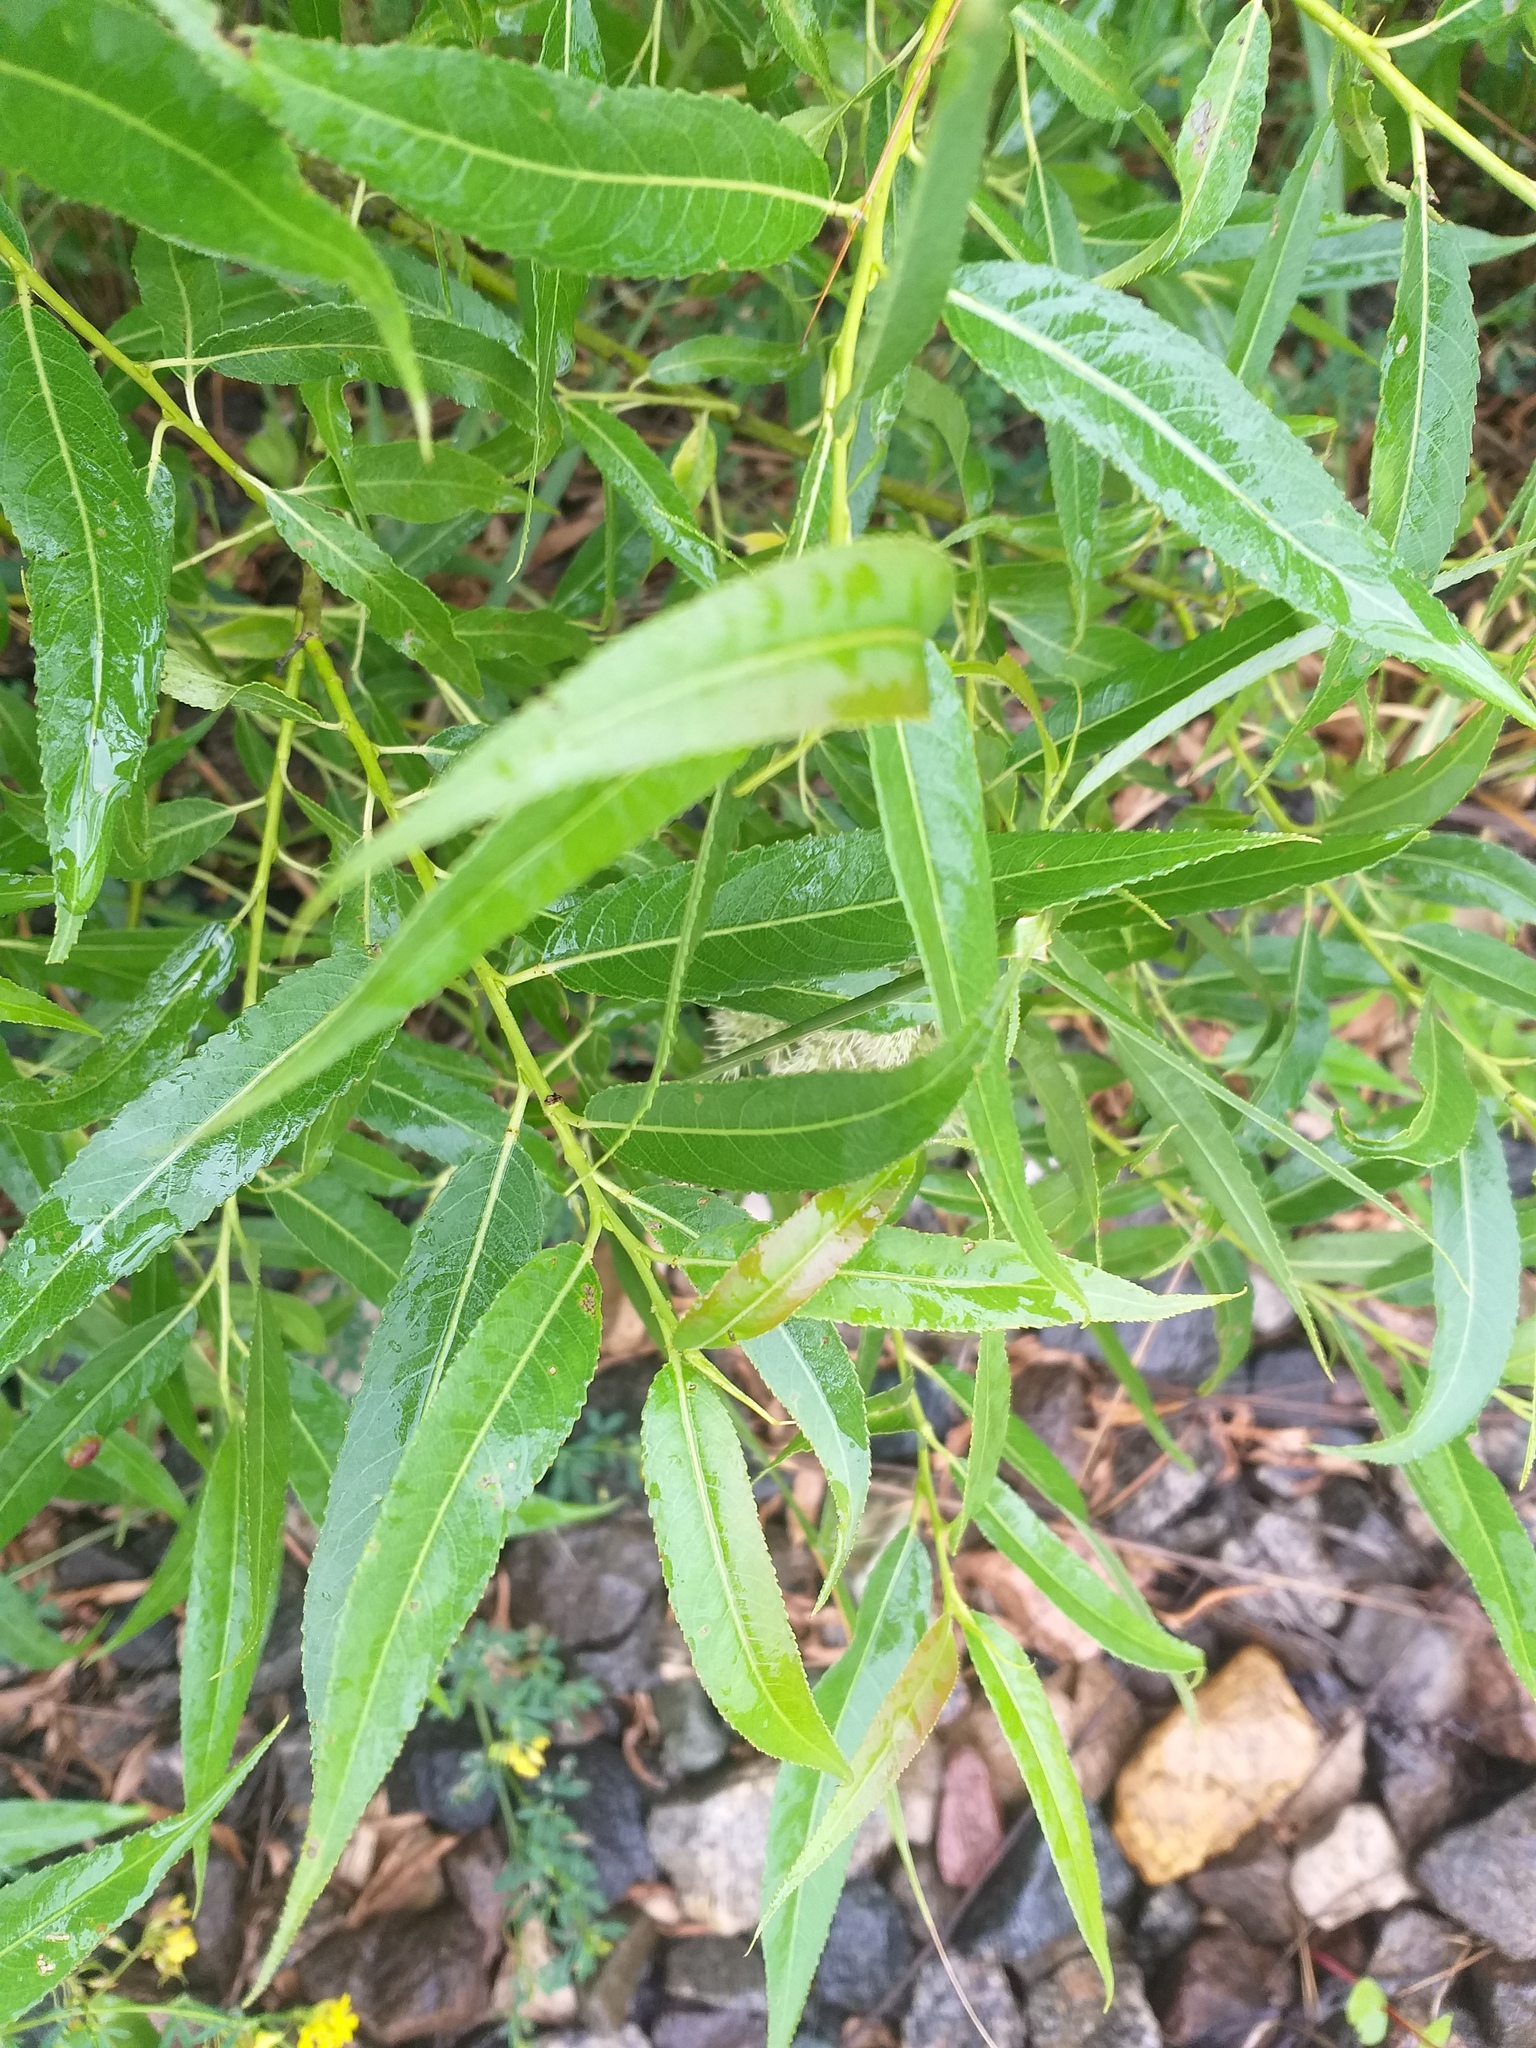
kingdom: Plantae
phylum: Tracheophyta
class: Magnoliopsida
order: Malpighiales
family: Salicaceae
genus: Salix
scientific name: Salix fragilis
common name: Crack willow
